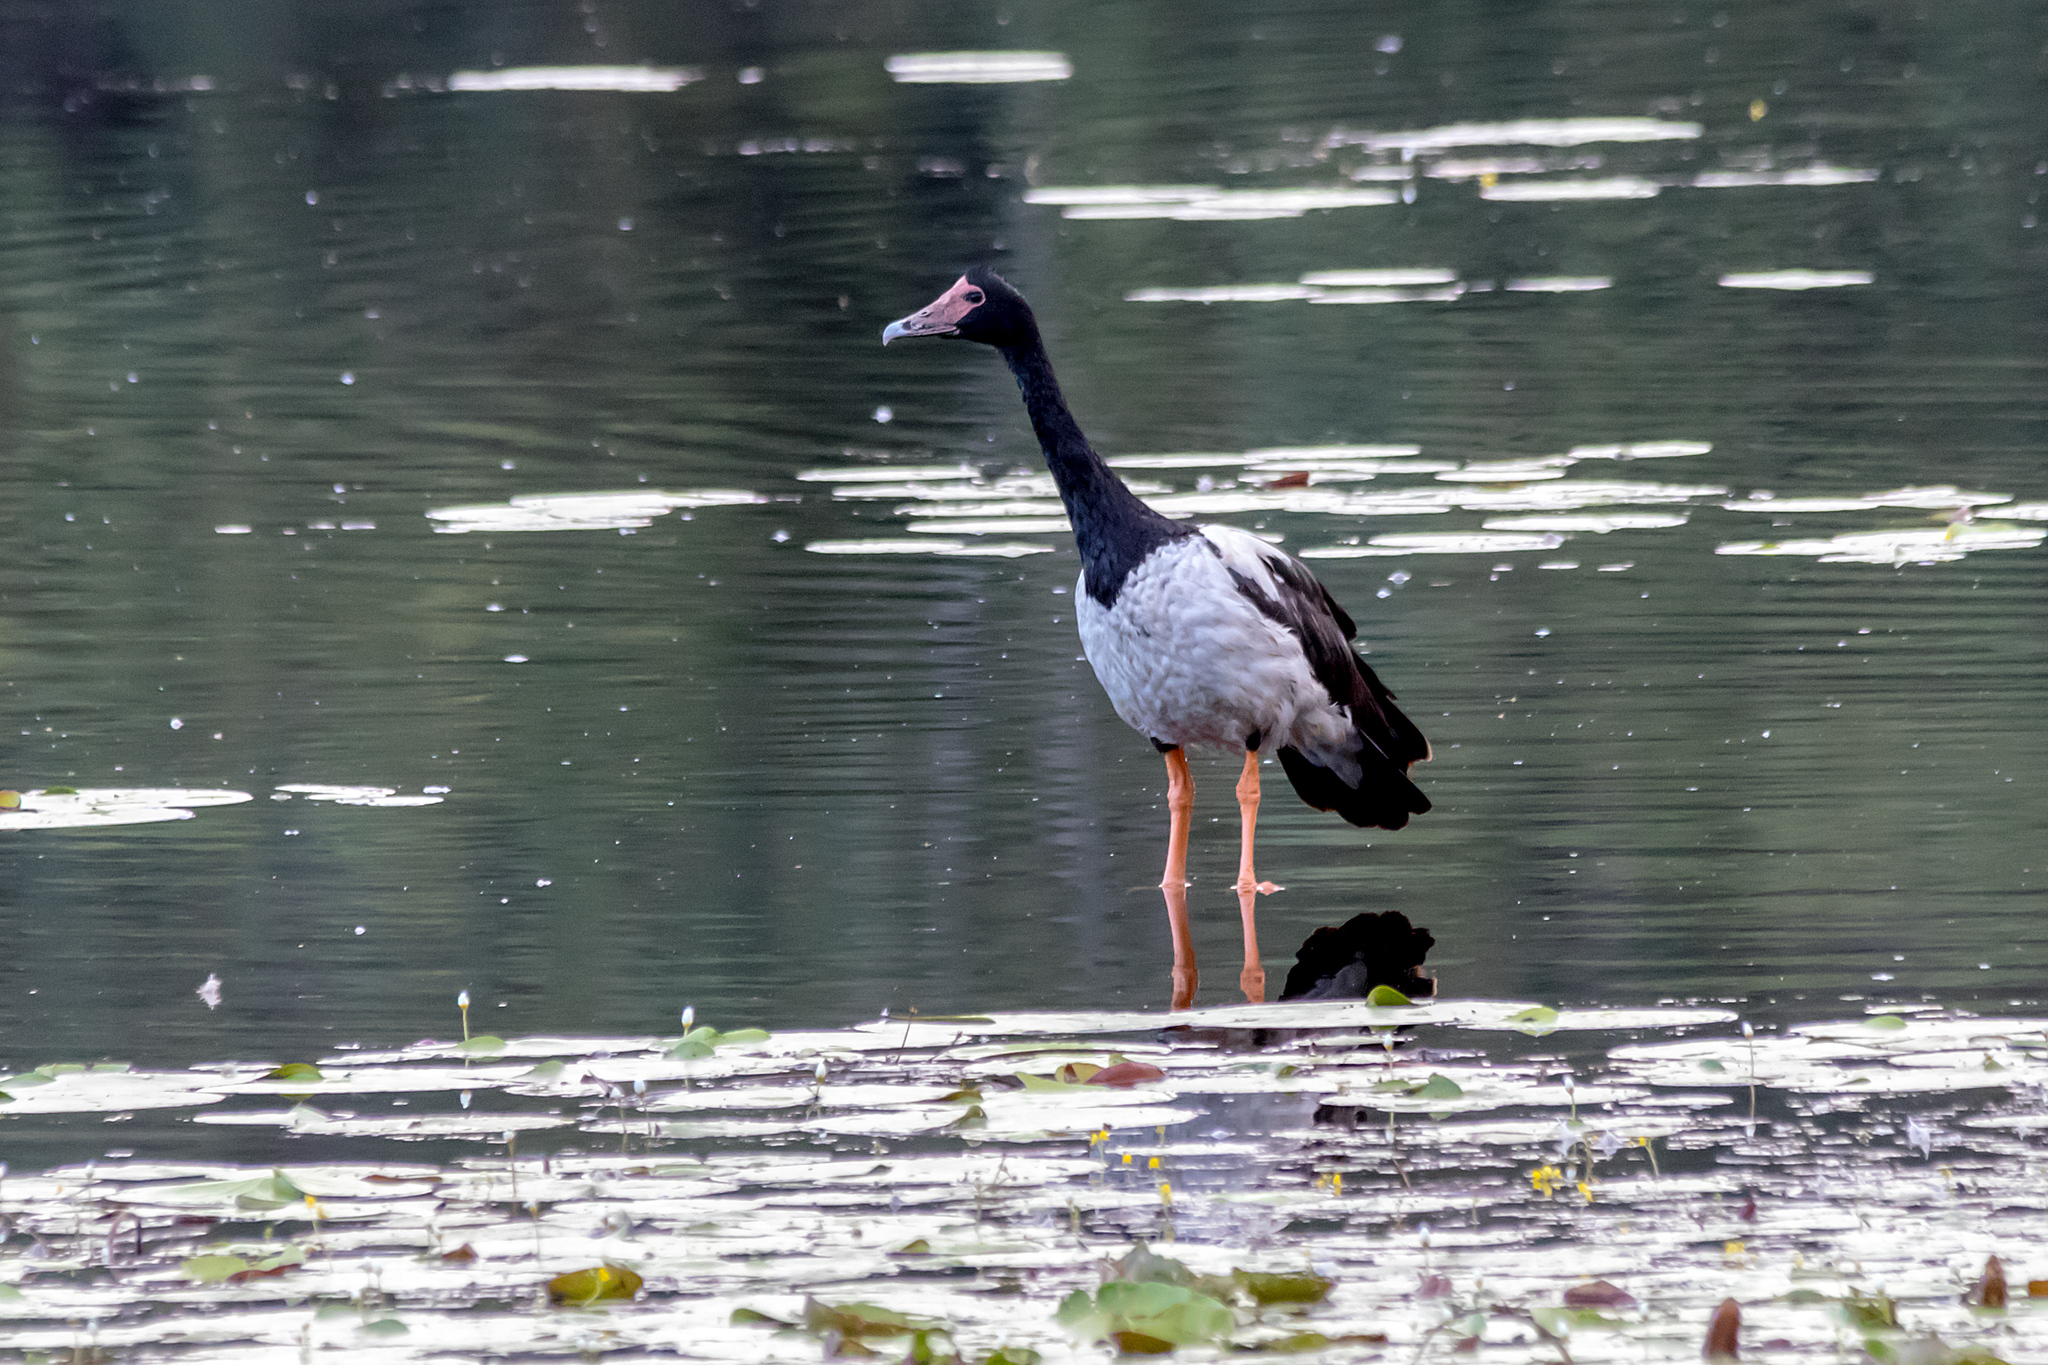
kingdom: Animalia
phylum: Chordata
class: Aves
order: Anseriformes
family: Anseranatidae
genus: Anseranas
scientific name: Anseranas semipalmata
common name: Magpie goose
